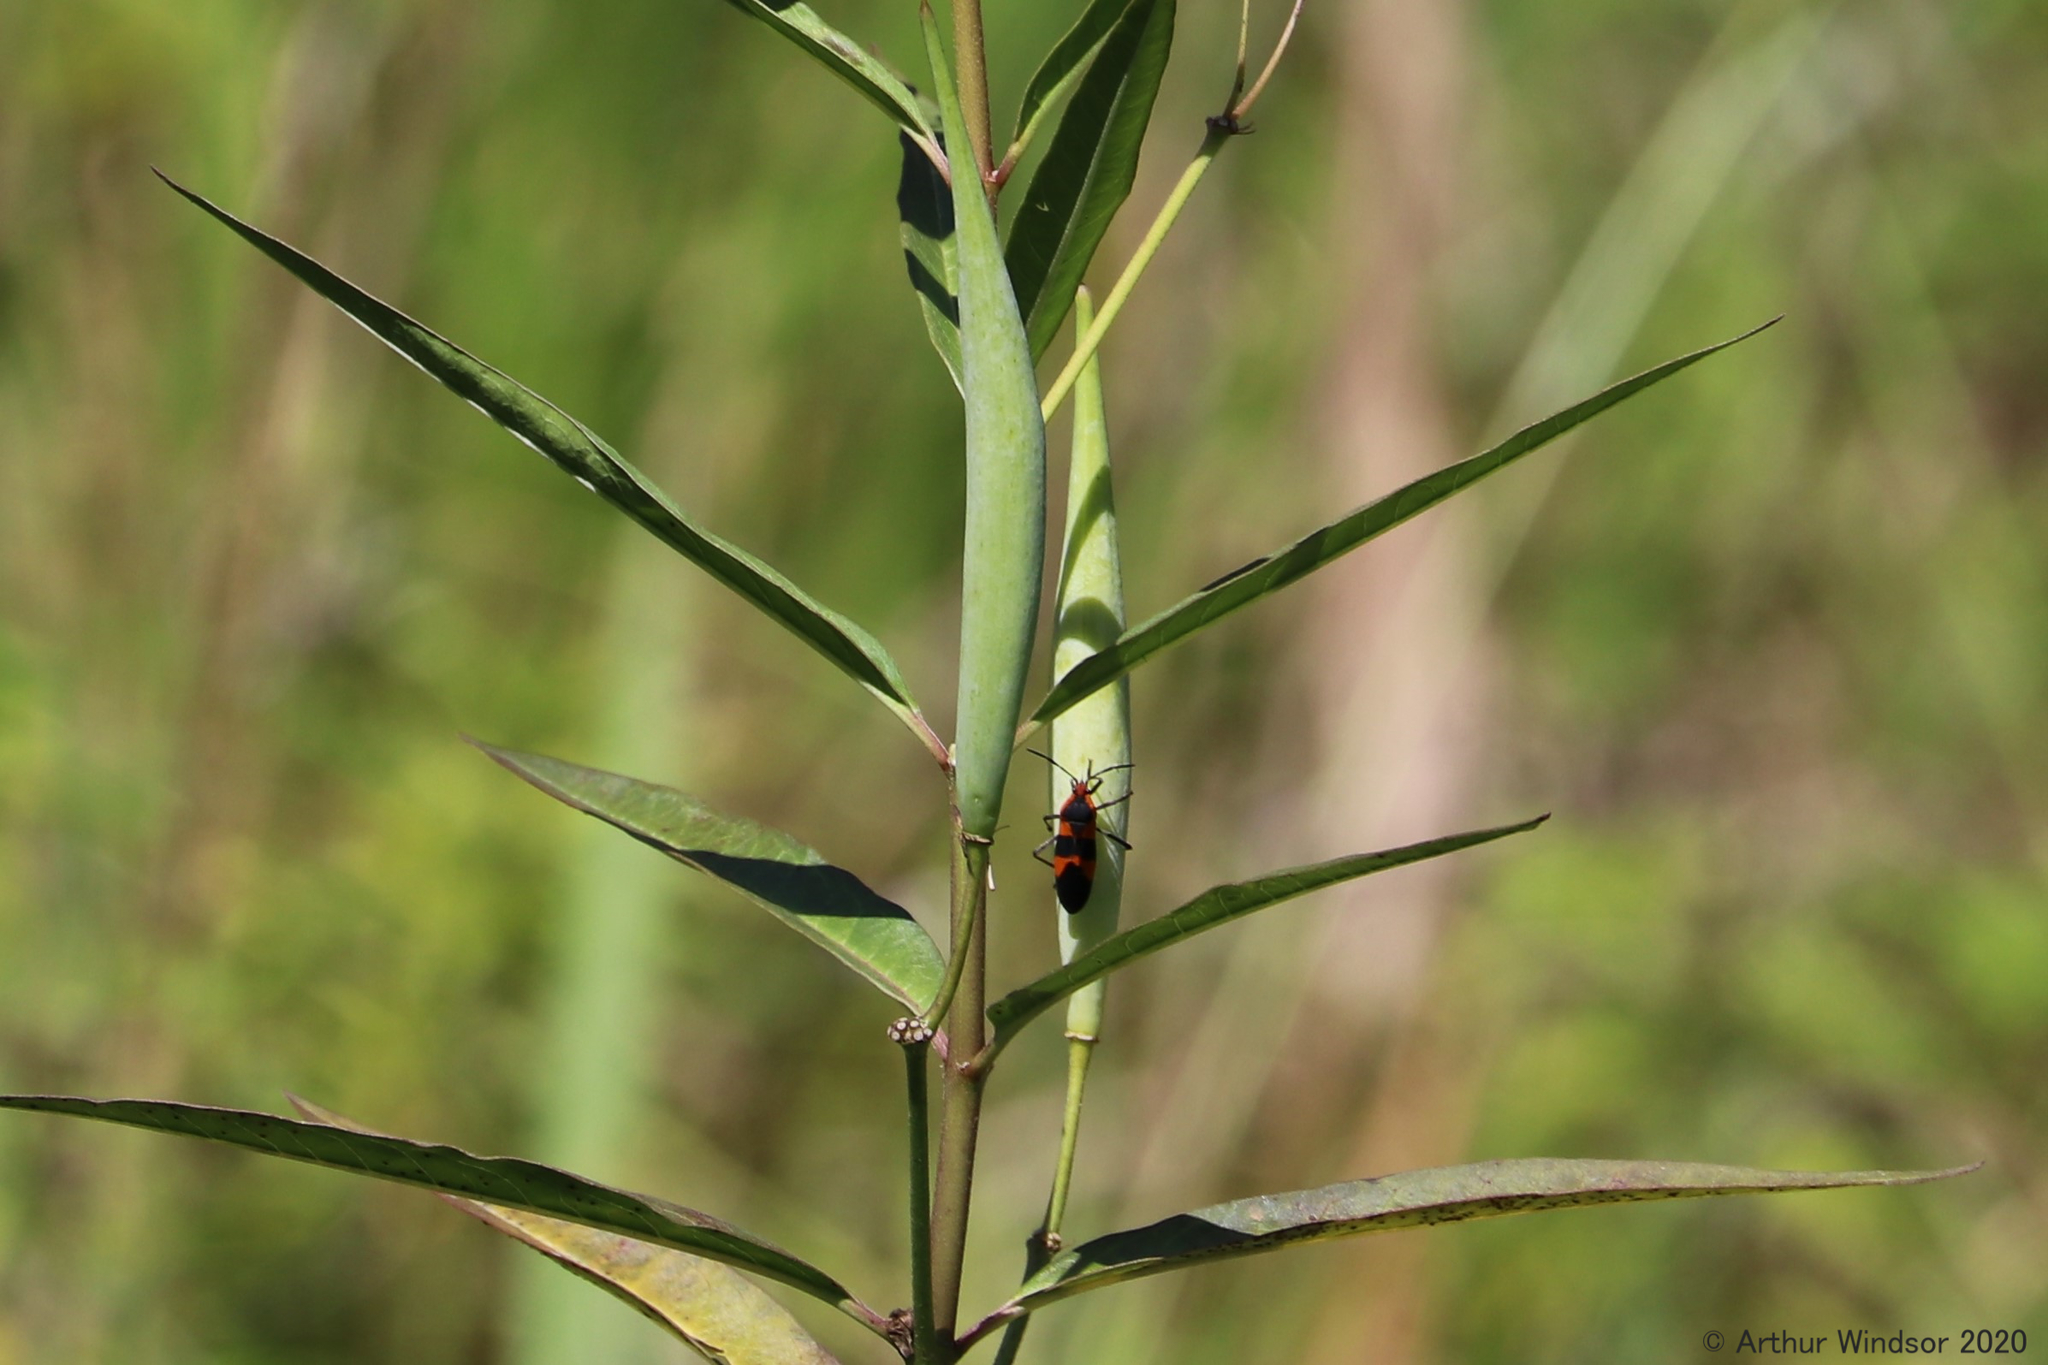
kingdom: Animalia
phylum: Arthropoda
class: Insecta
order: Hemiptera
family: Lygaeidae
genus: Oncopeltus
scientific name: Oncopeltus fasciatus
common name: Large milkweed bug
